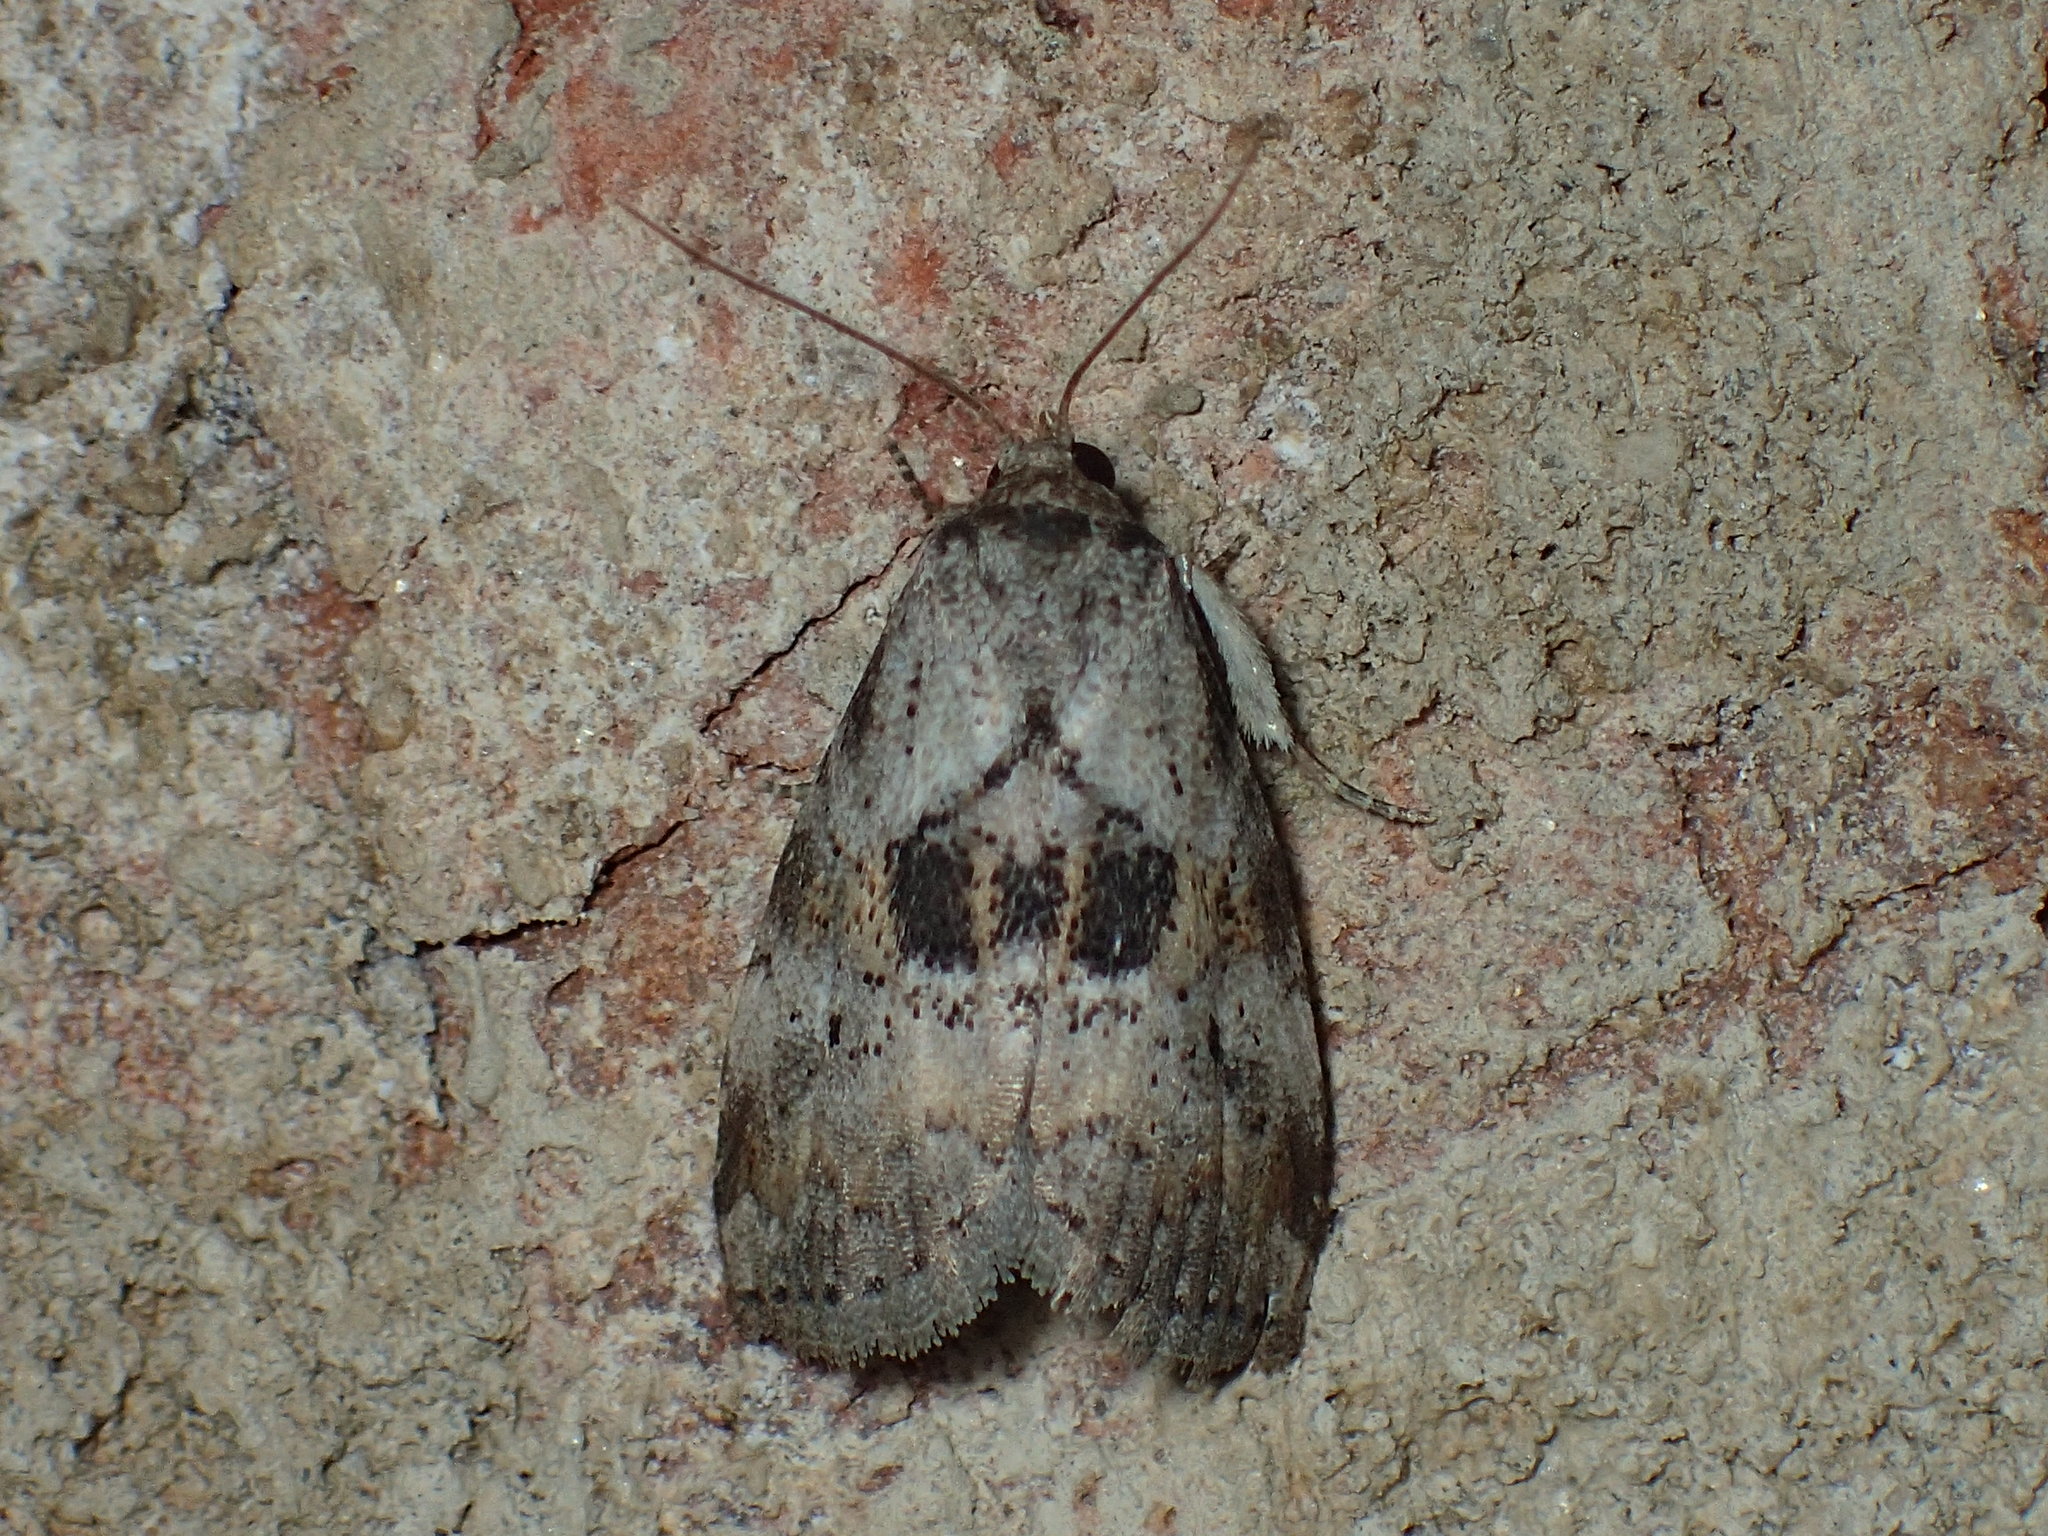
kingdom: Animalia
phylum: Arthropoda
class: Insecta
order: Lepidoptera
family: Erebidae
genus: Hyperstrotia
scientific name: Hyperstrotia secta
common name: Black-patched graylet
